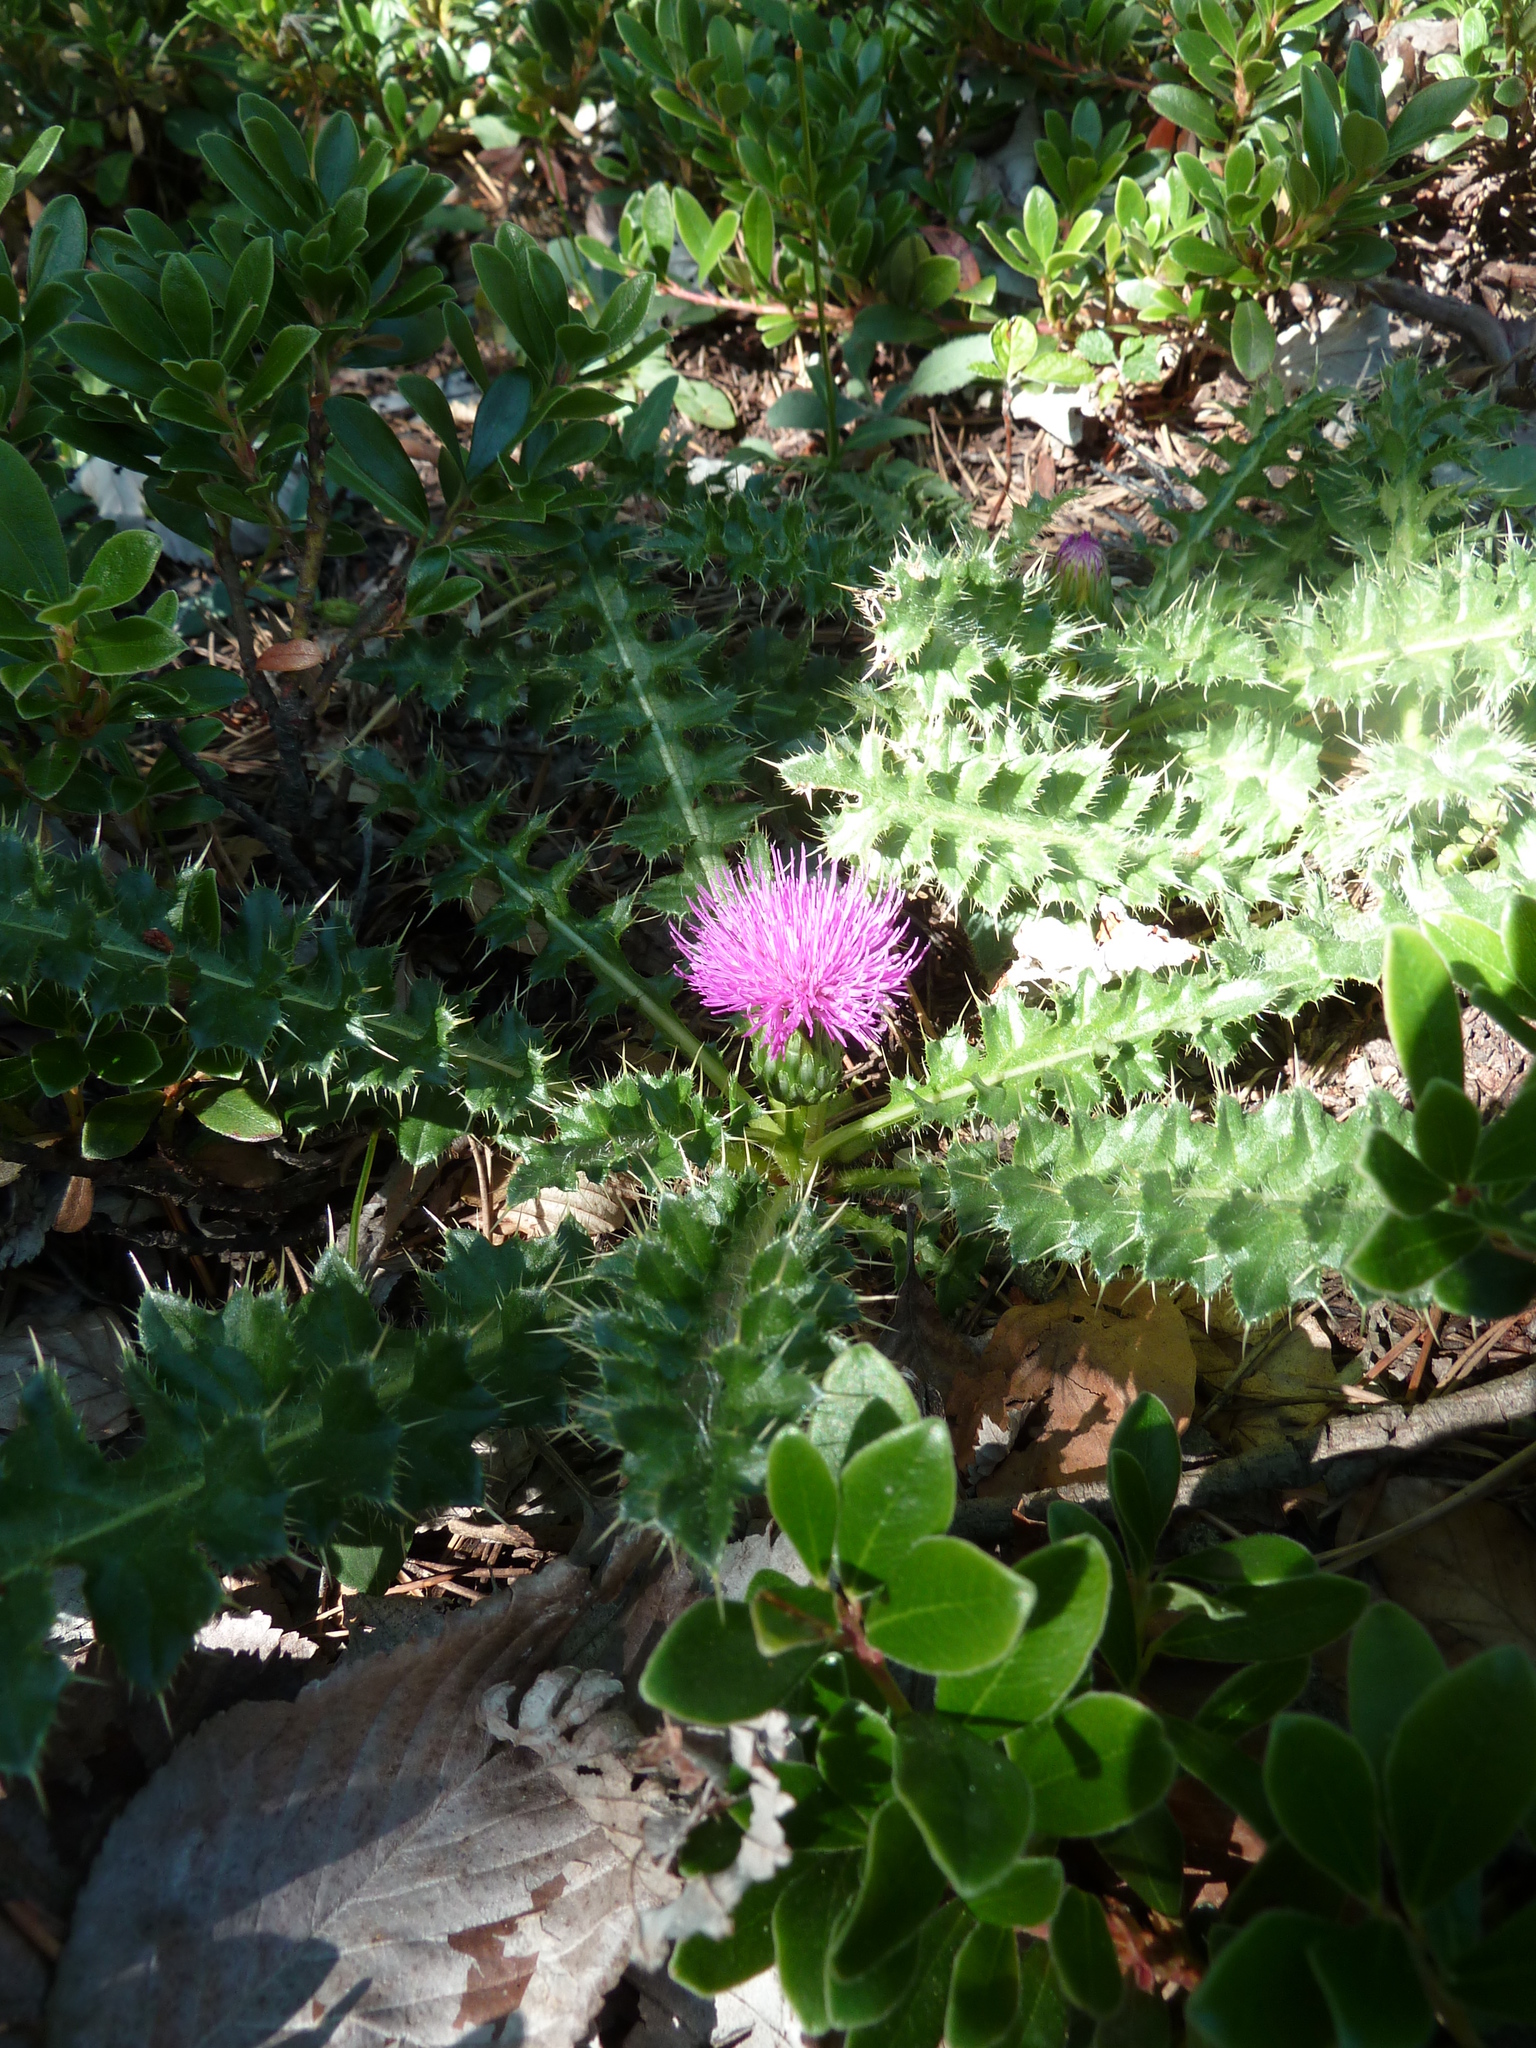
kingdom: Plantae
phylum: Tracheophyta
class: Magnoliopsida
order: Asterales
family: Asteraceae
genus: Cirsium
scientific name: Cirsium acaulon
